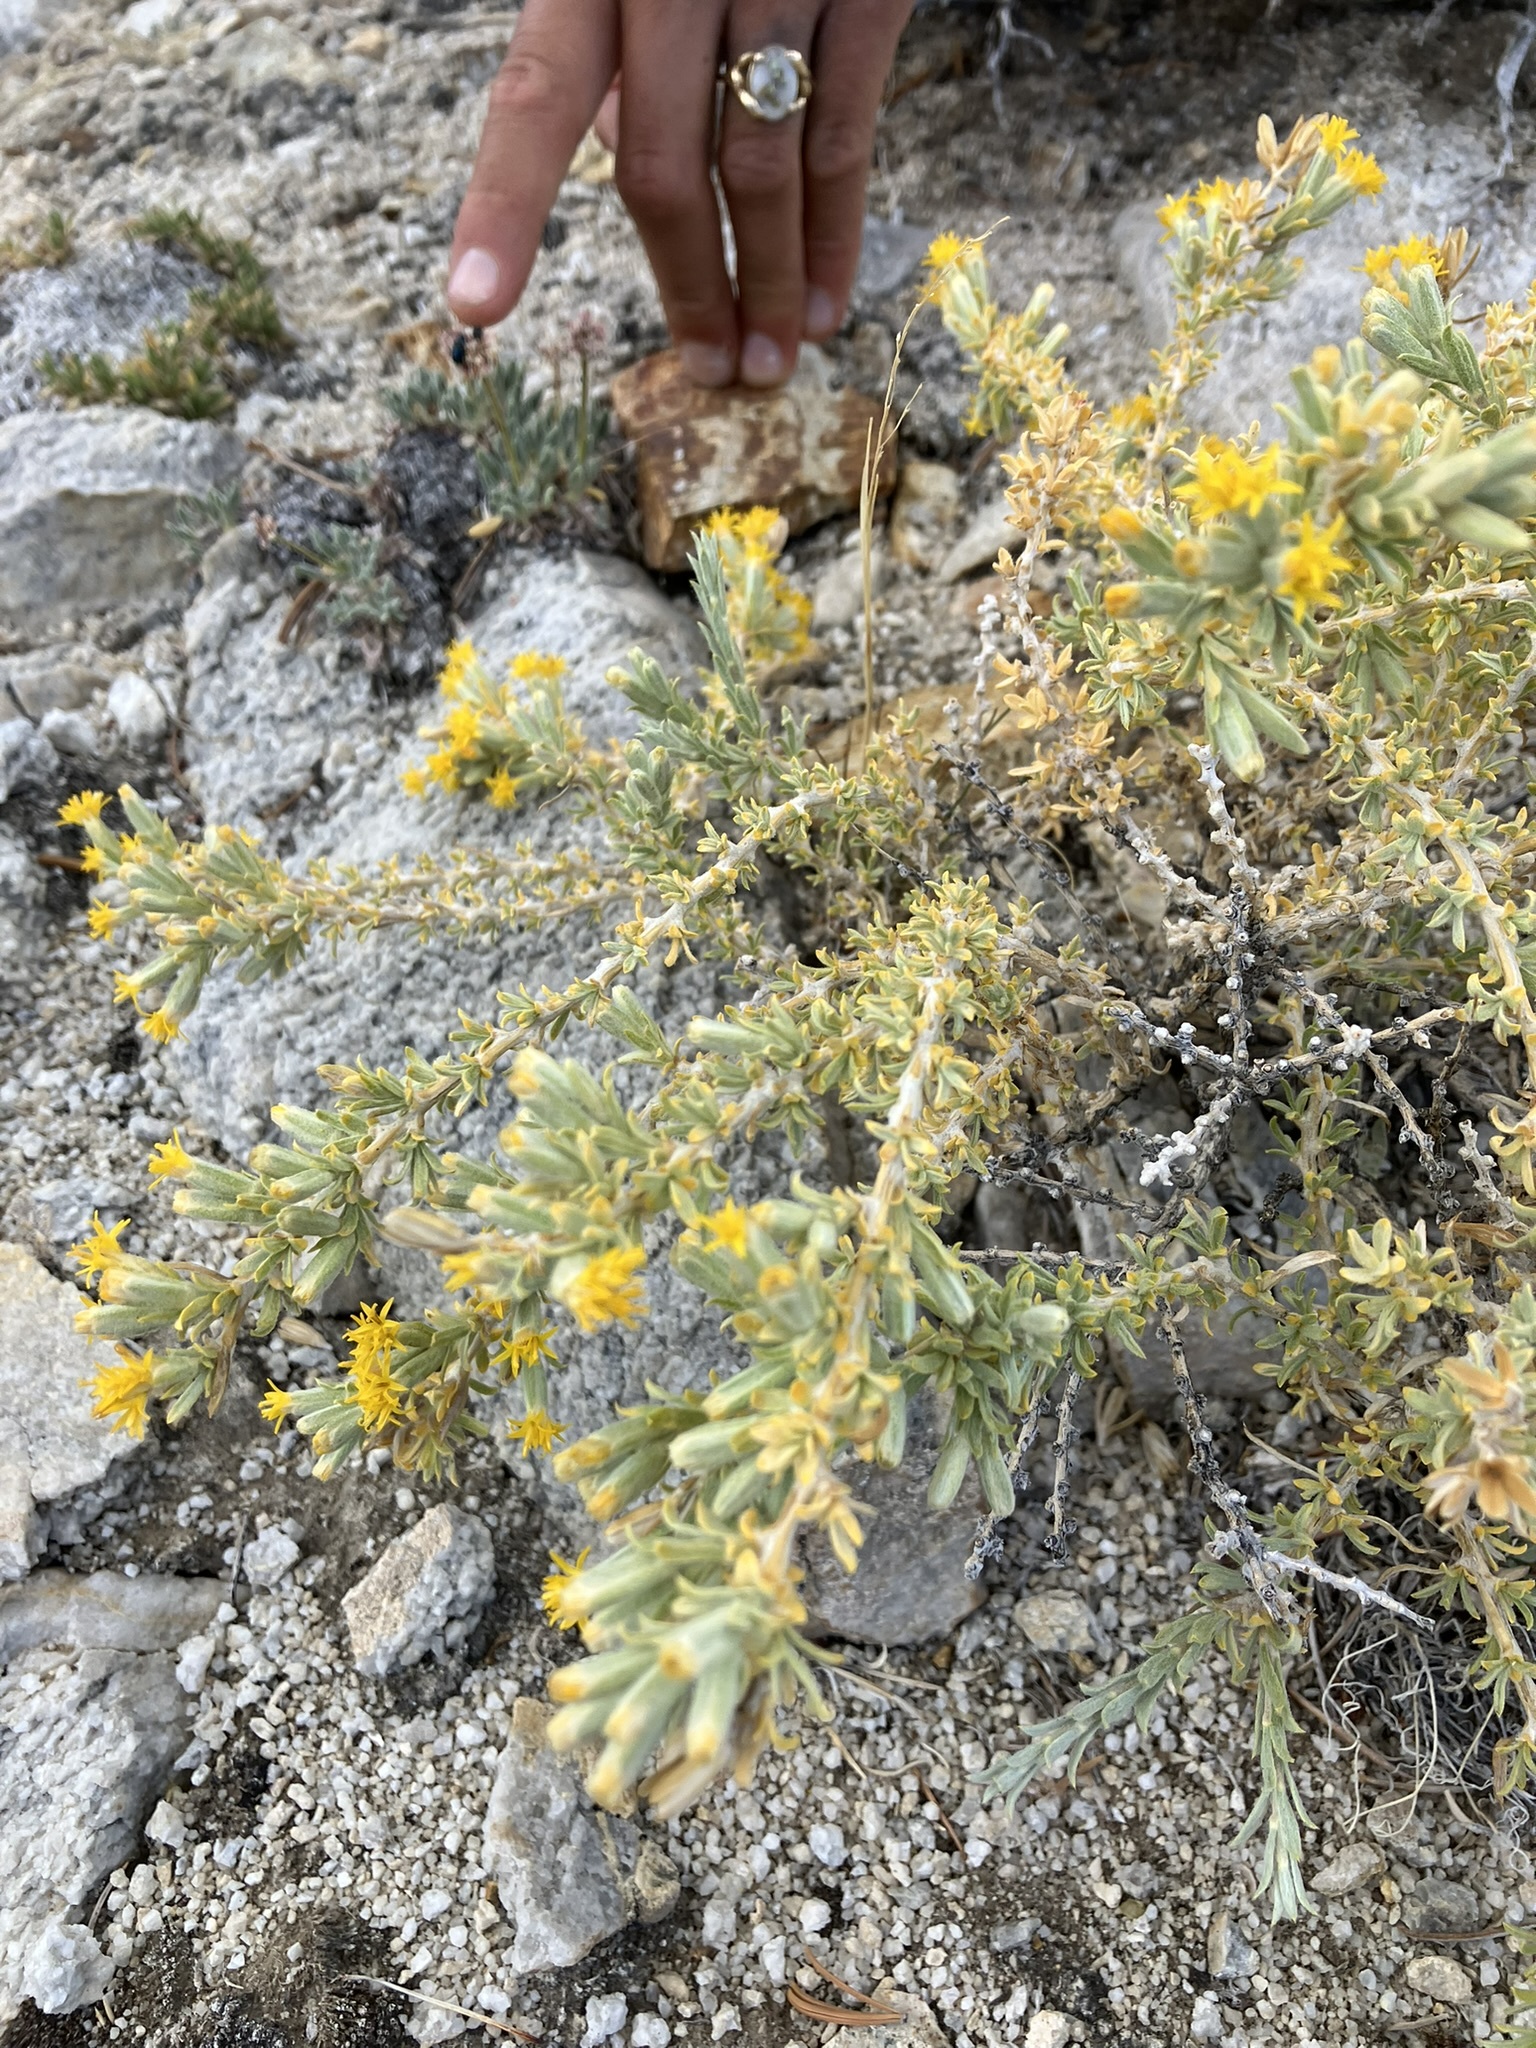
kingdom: Plantae
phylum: Tracheophyta
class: Magnoliopsida
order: Asterales
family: Asteraceae
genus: Tetradymia
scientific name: Tetradymia canescens
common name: Spineless horsebrush
